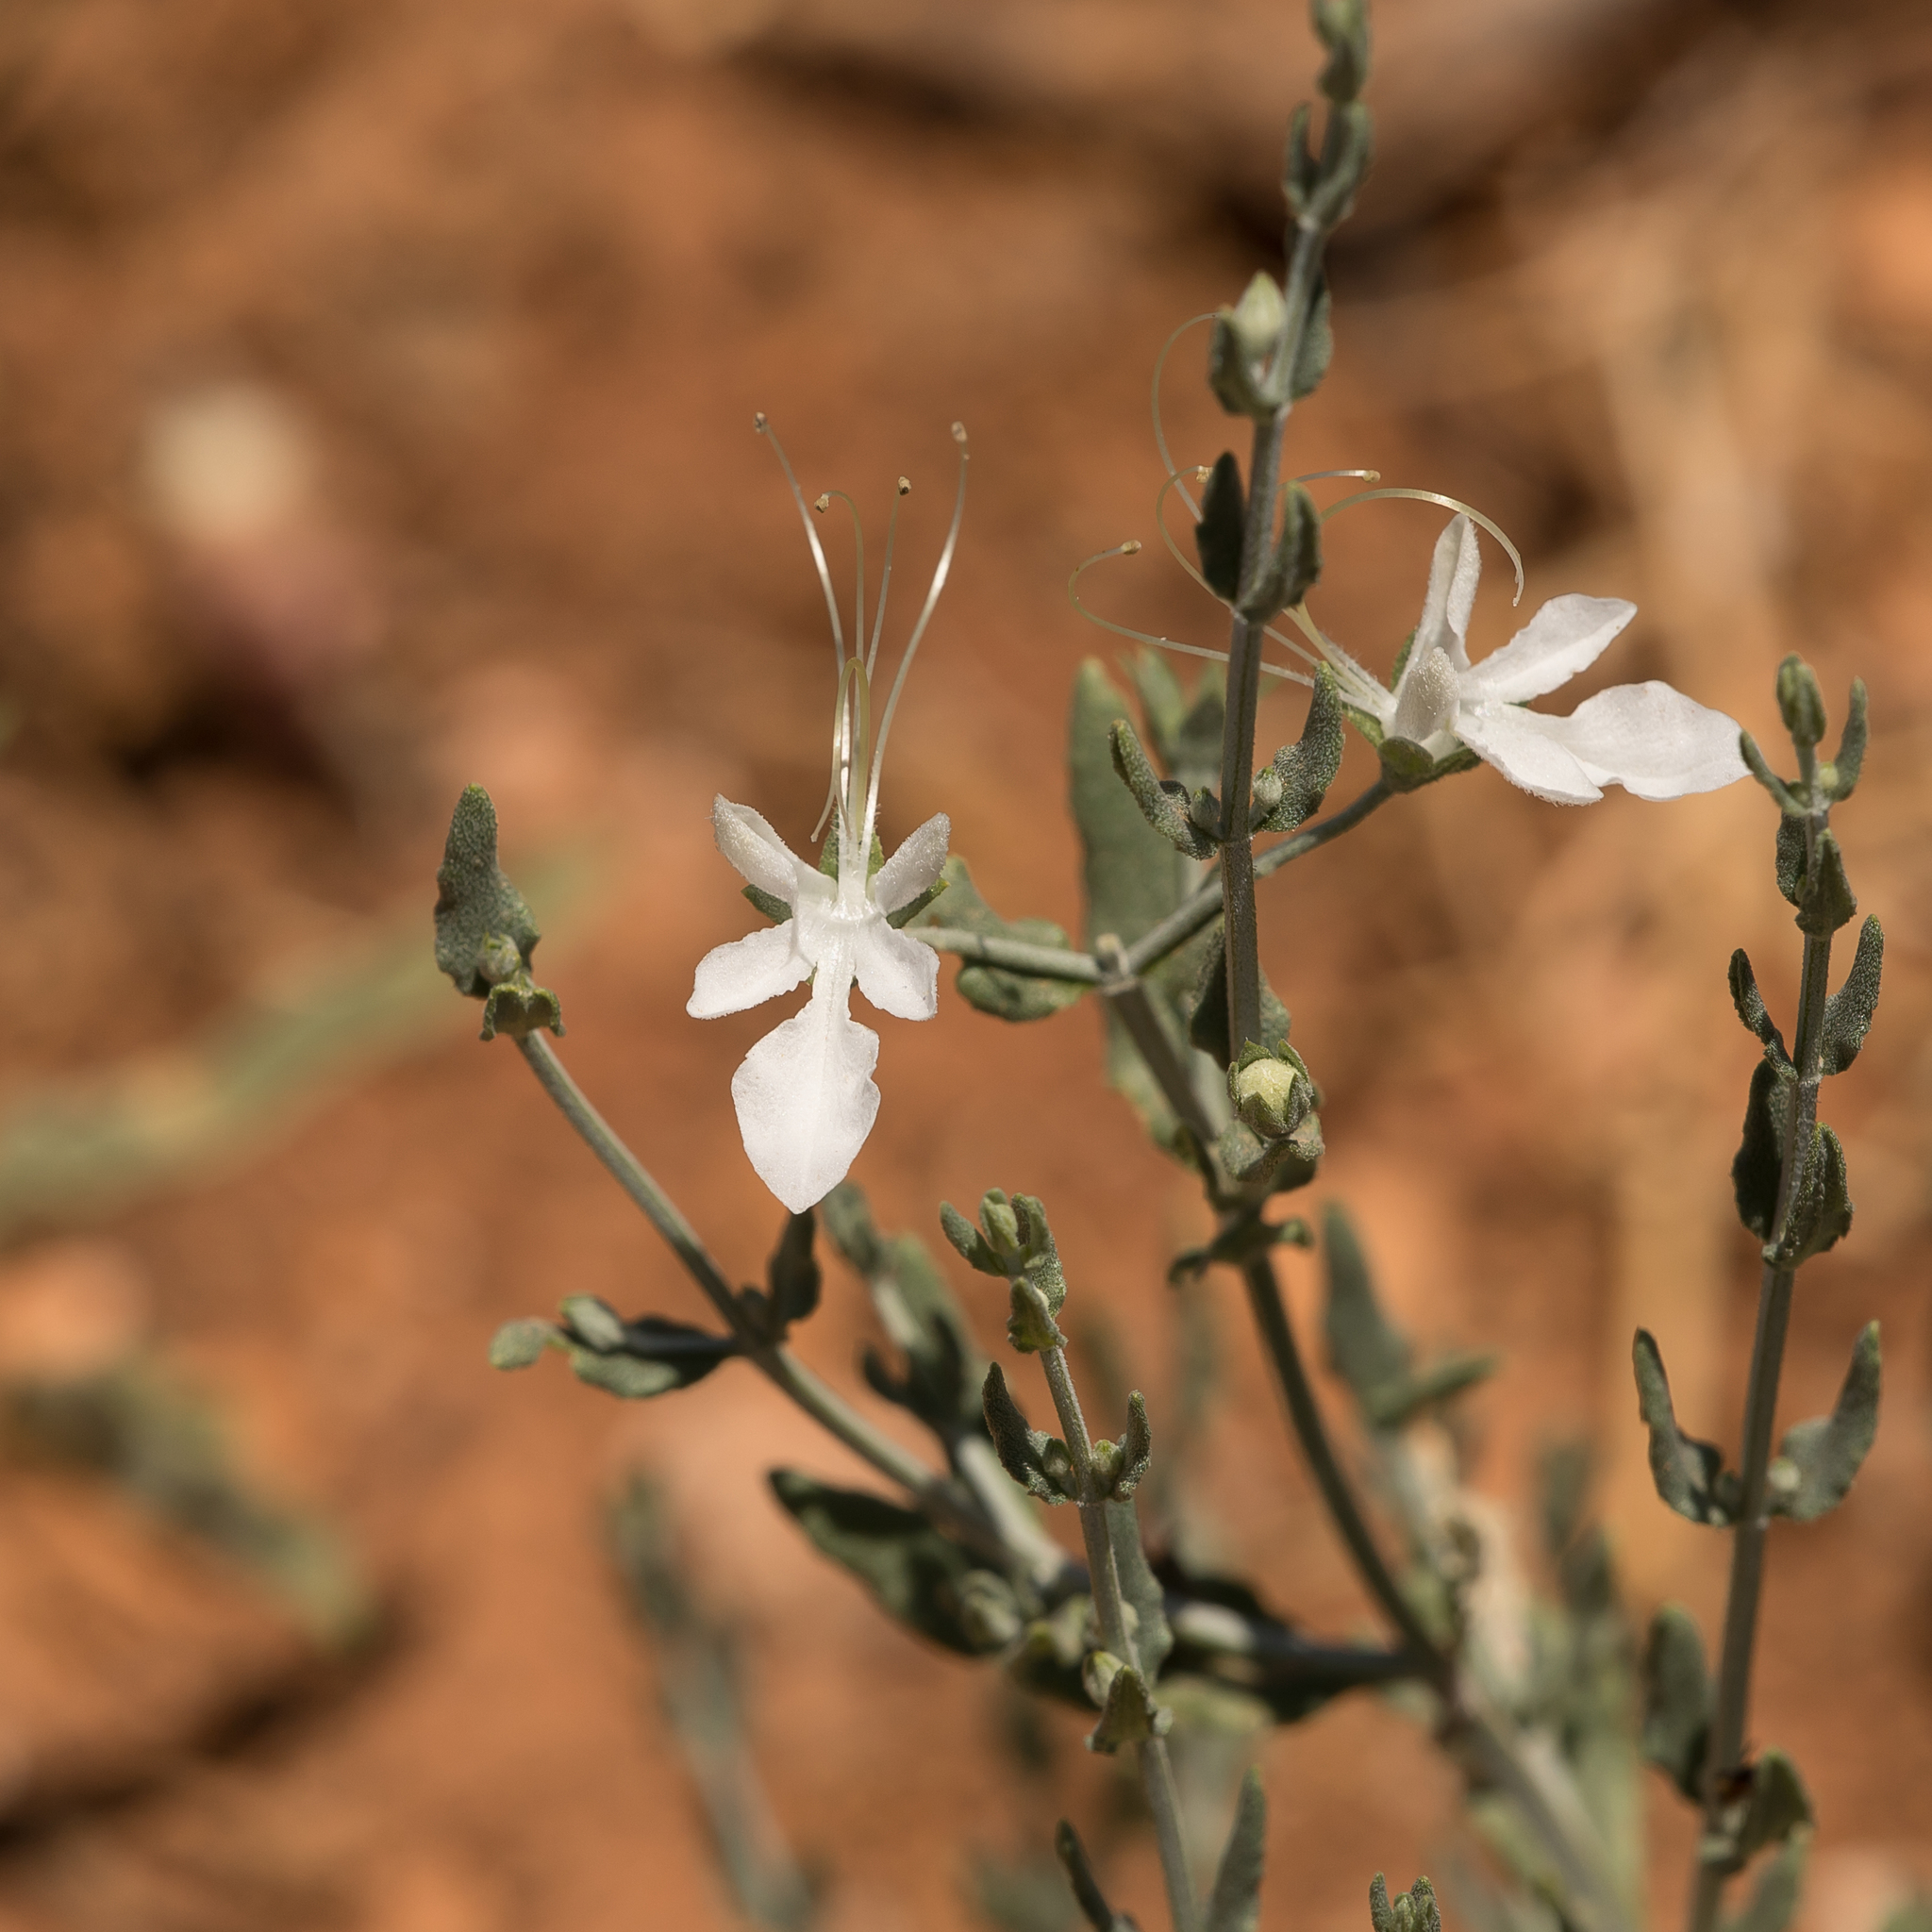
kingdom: Plantae
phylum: Tracheophyta
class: Magnoliopsida
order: Lamiales
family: Lamiaceae
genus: Teucrium
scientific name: Teucrium racemosum
